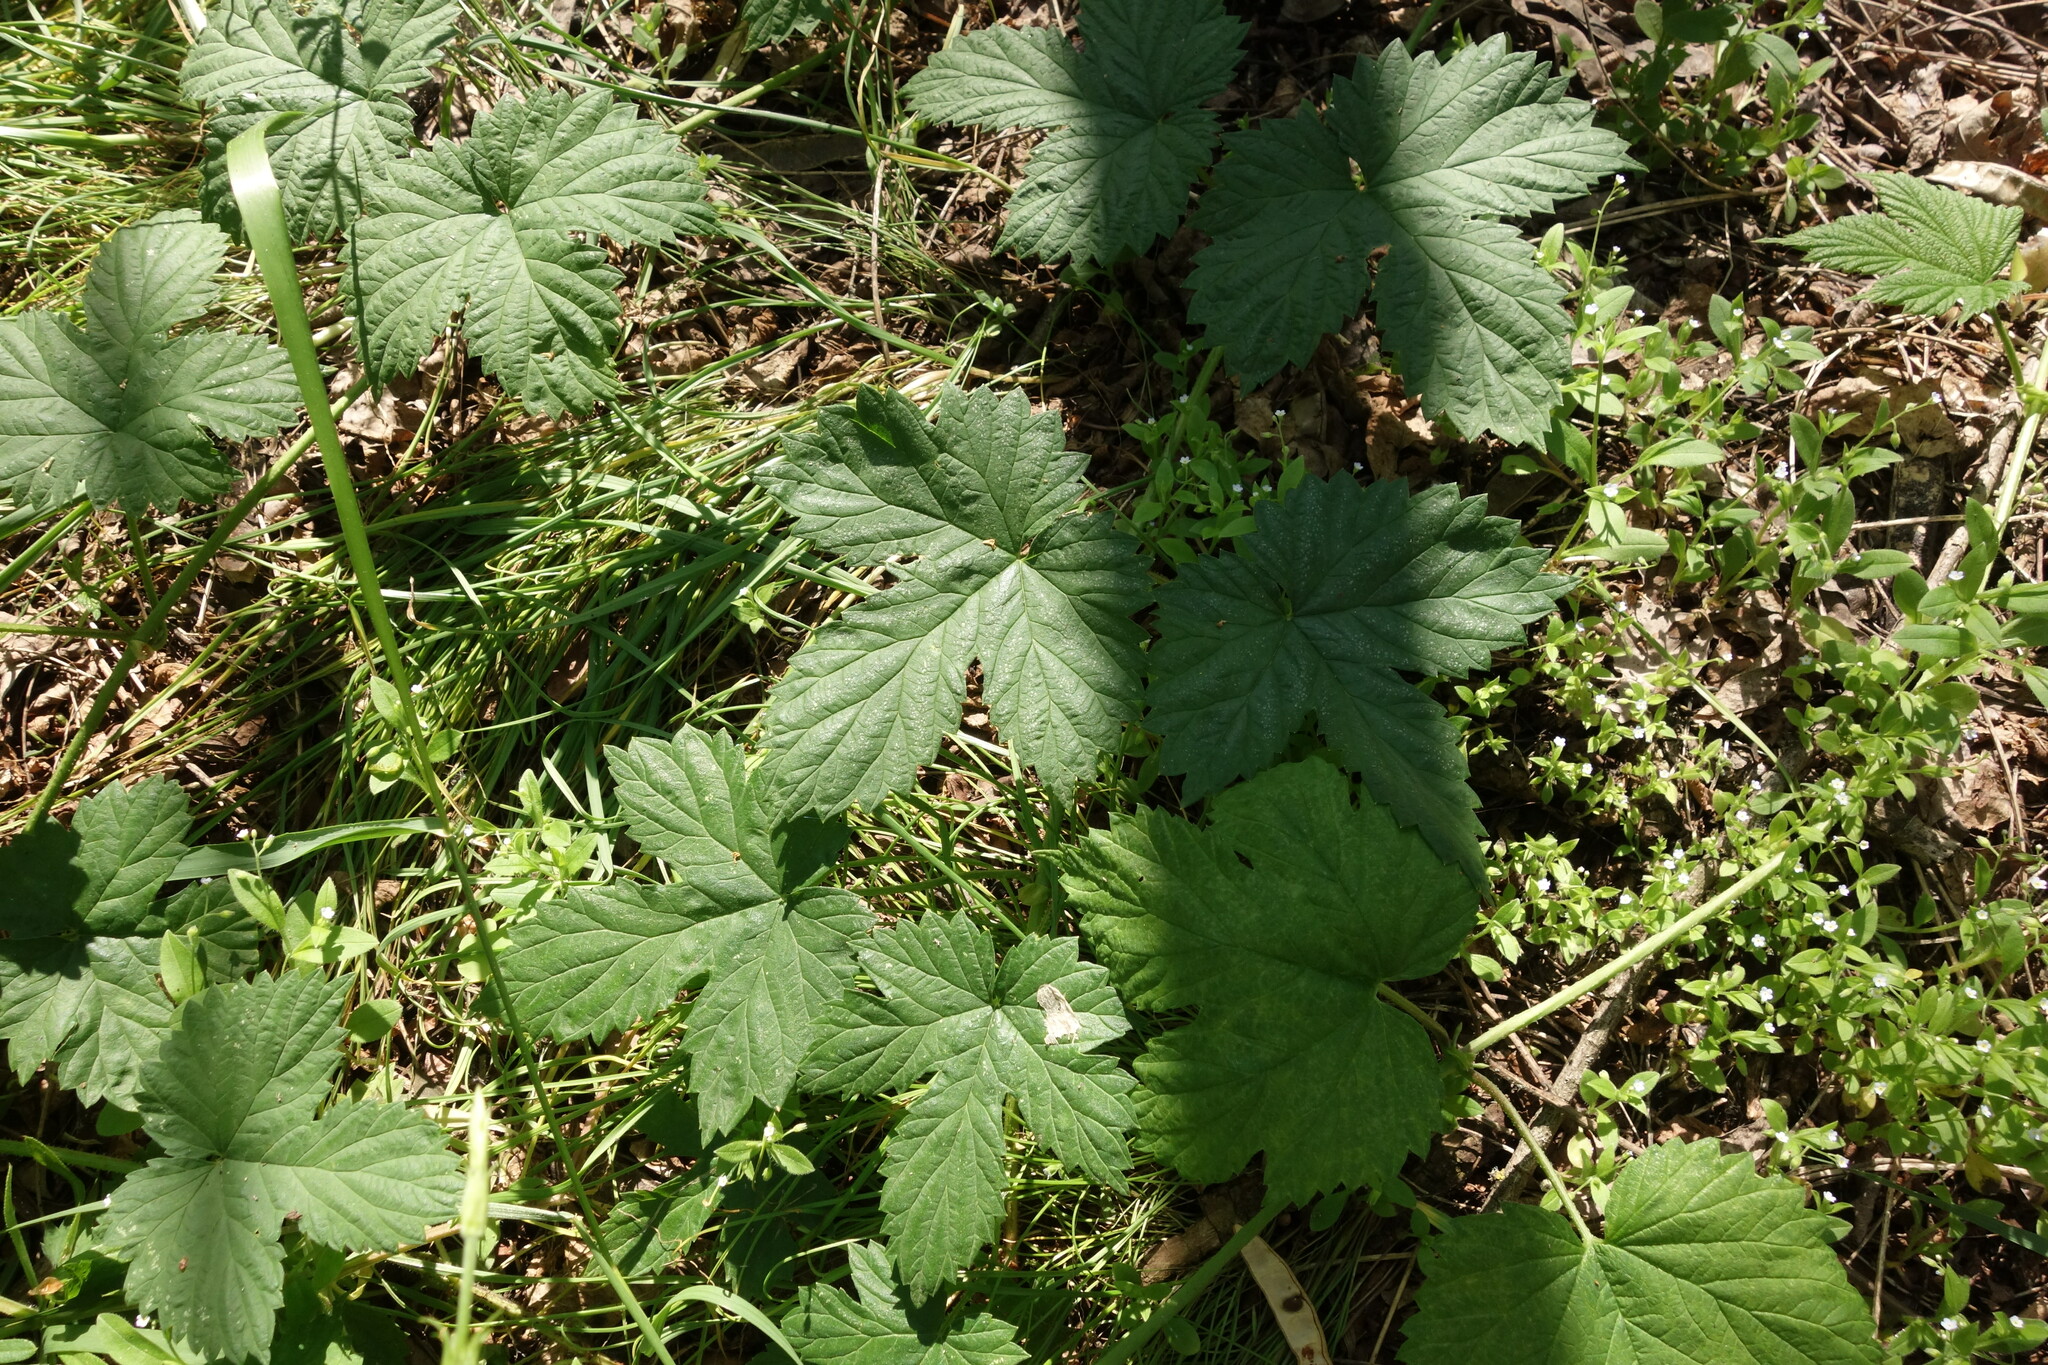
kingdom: Plantae
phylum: Tracheophyta
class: Magnoliopsida
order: Rosales
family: Cannabaceae
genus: Humulus
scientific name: Humulus lupulus
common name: Hop
